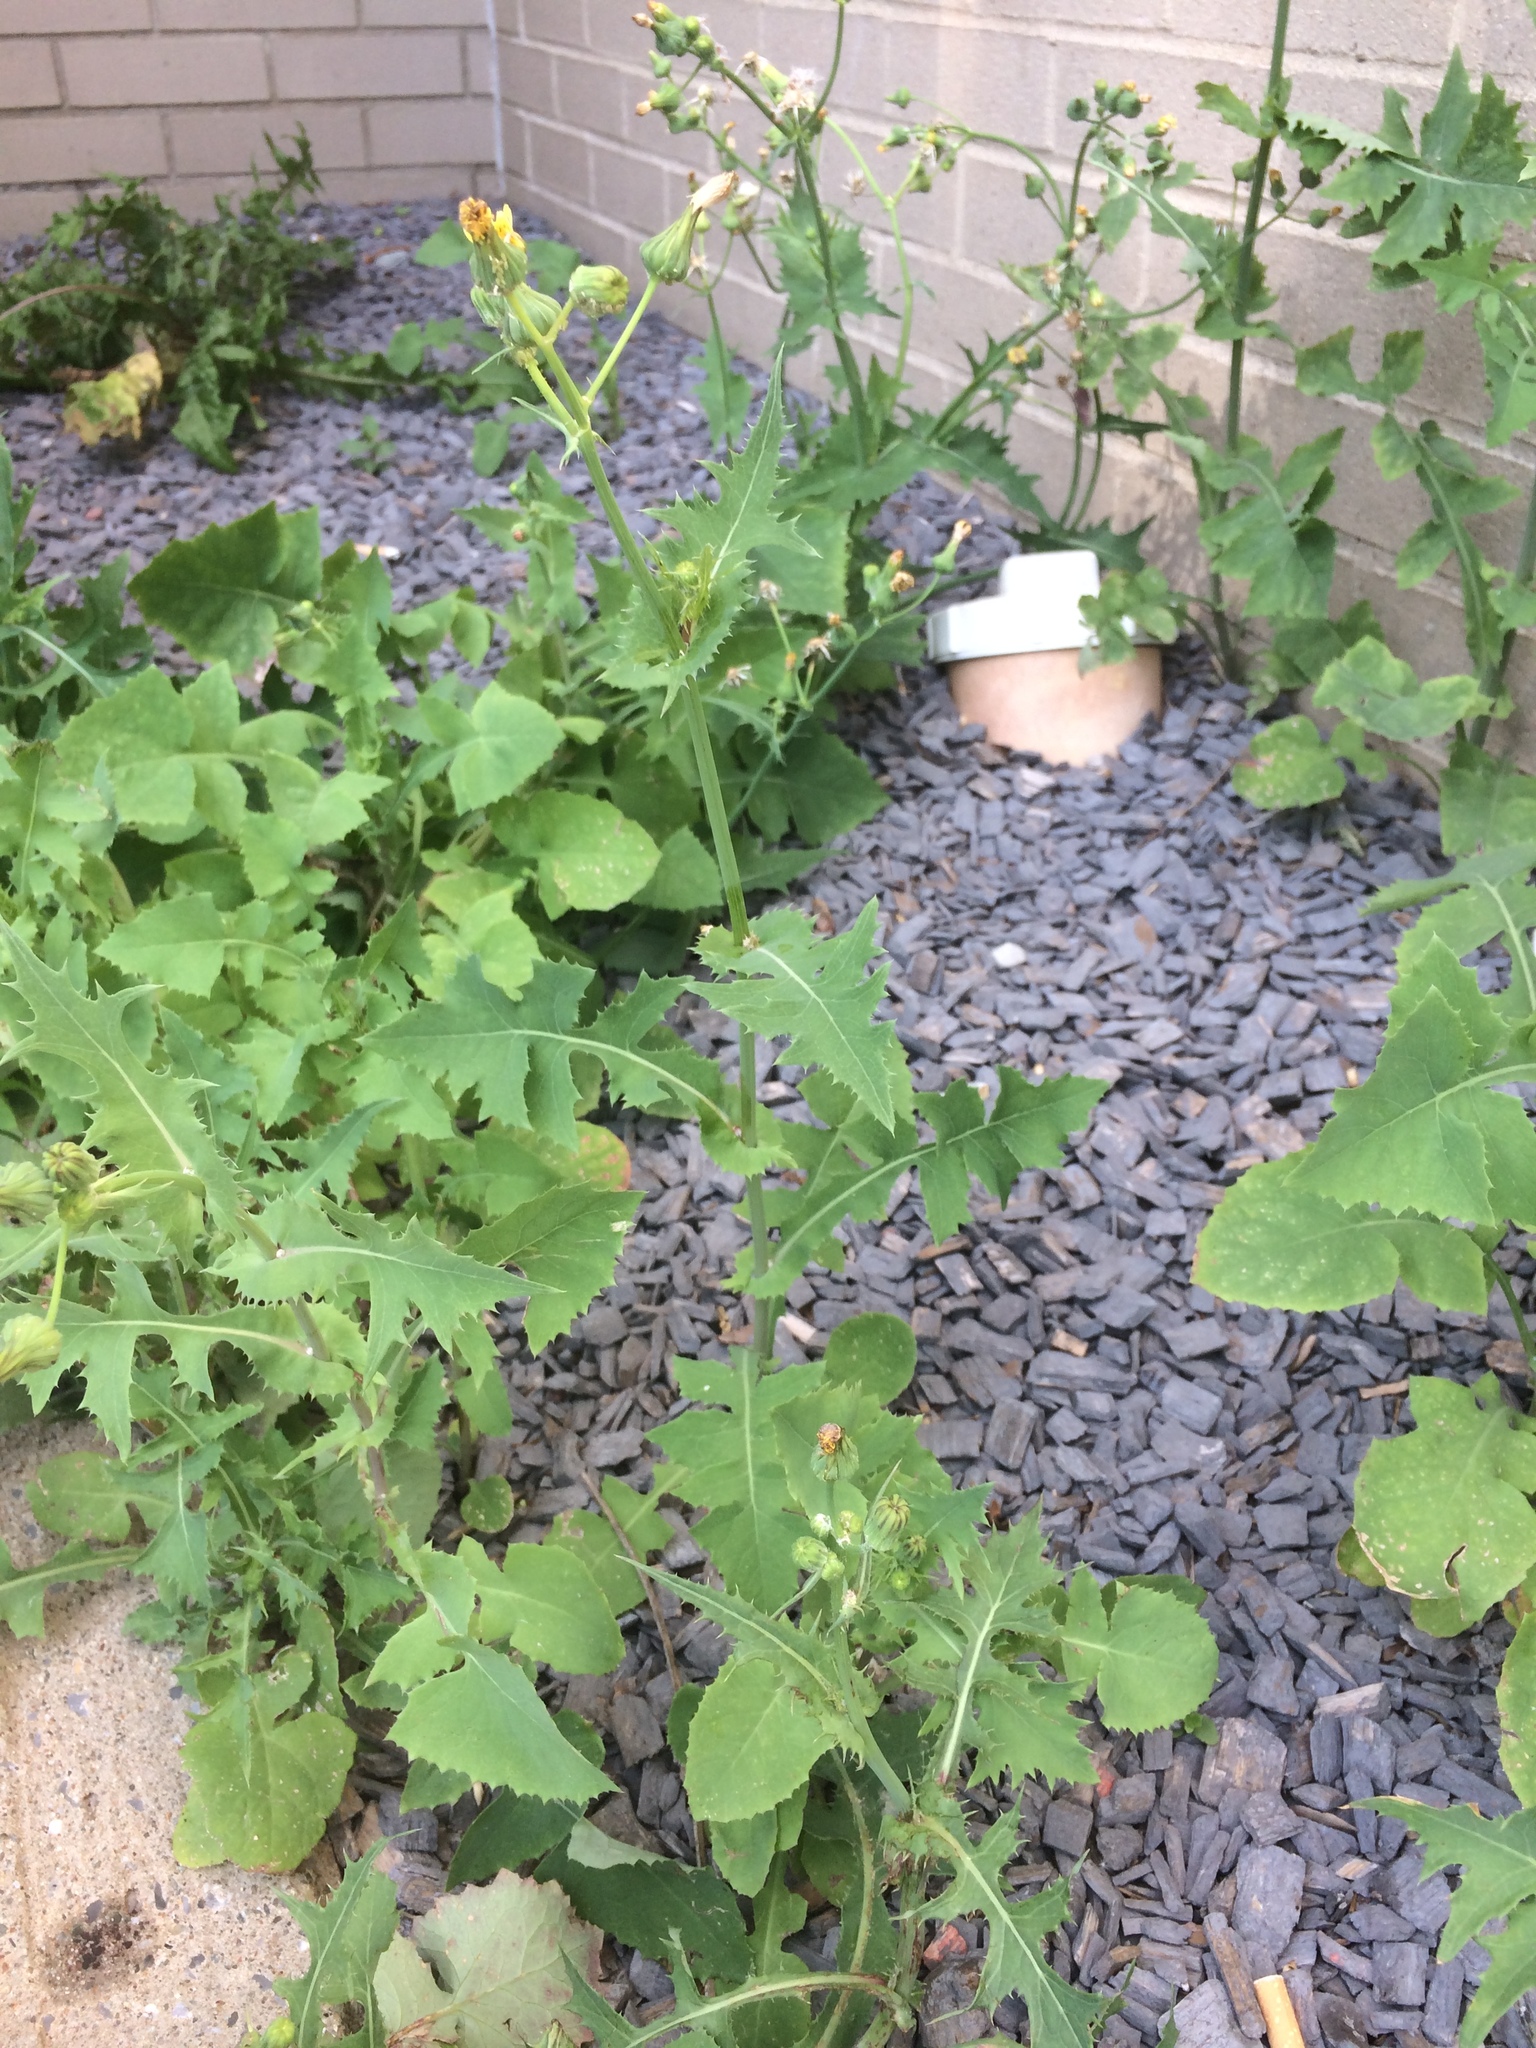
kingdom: Plantae
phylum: Tracheophyta
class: Magnoliopsida
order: Asterales
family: Asteraceae
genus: Sonchus
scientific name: Sonchus oleraceus
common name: Common sowthistle
